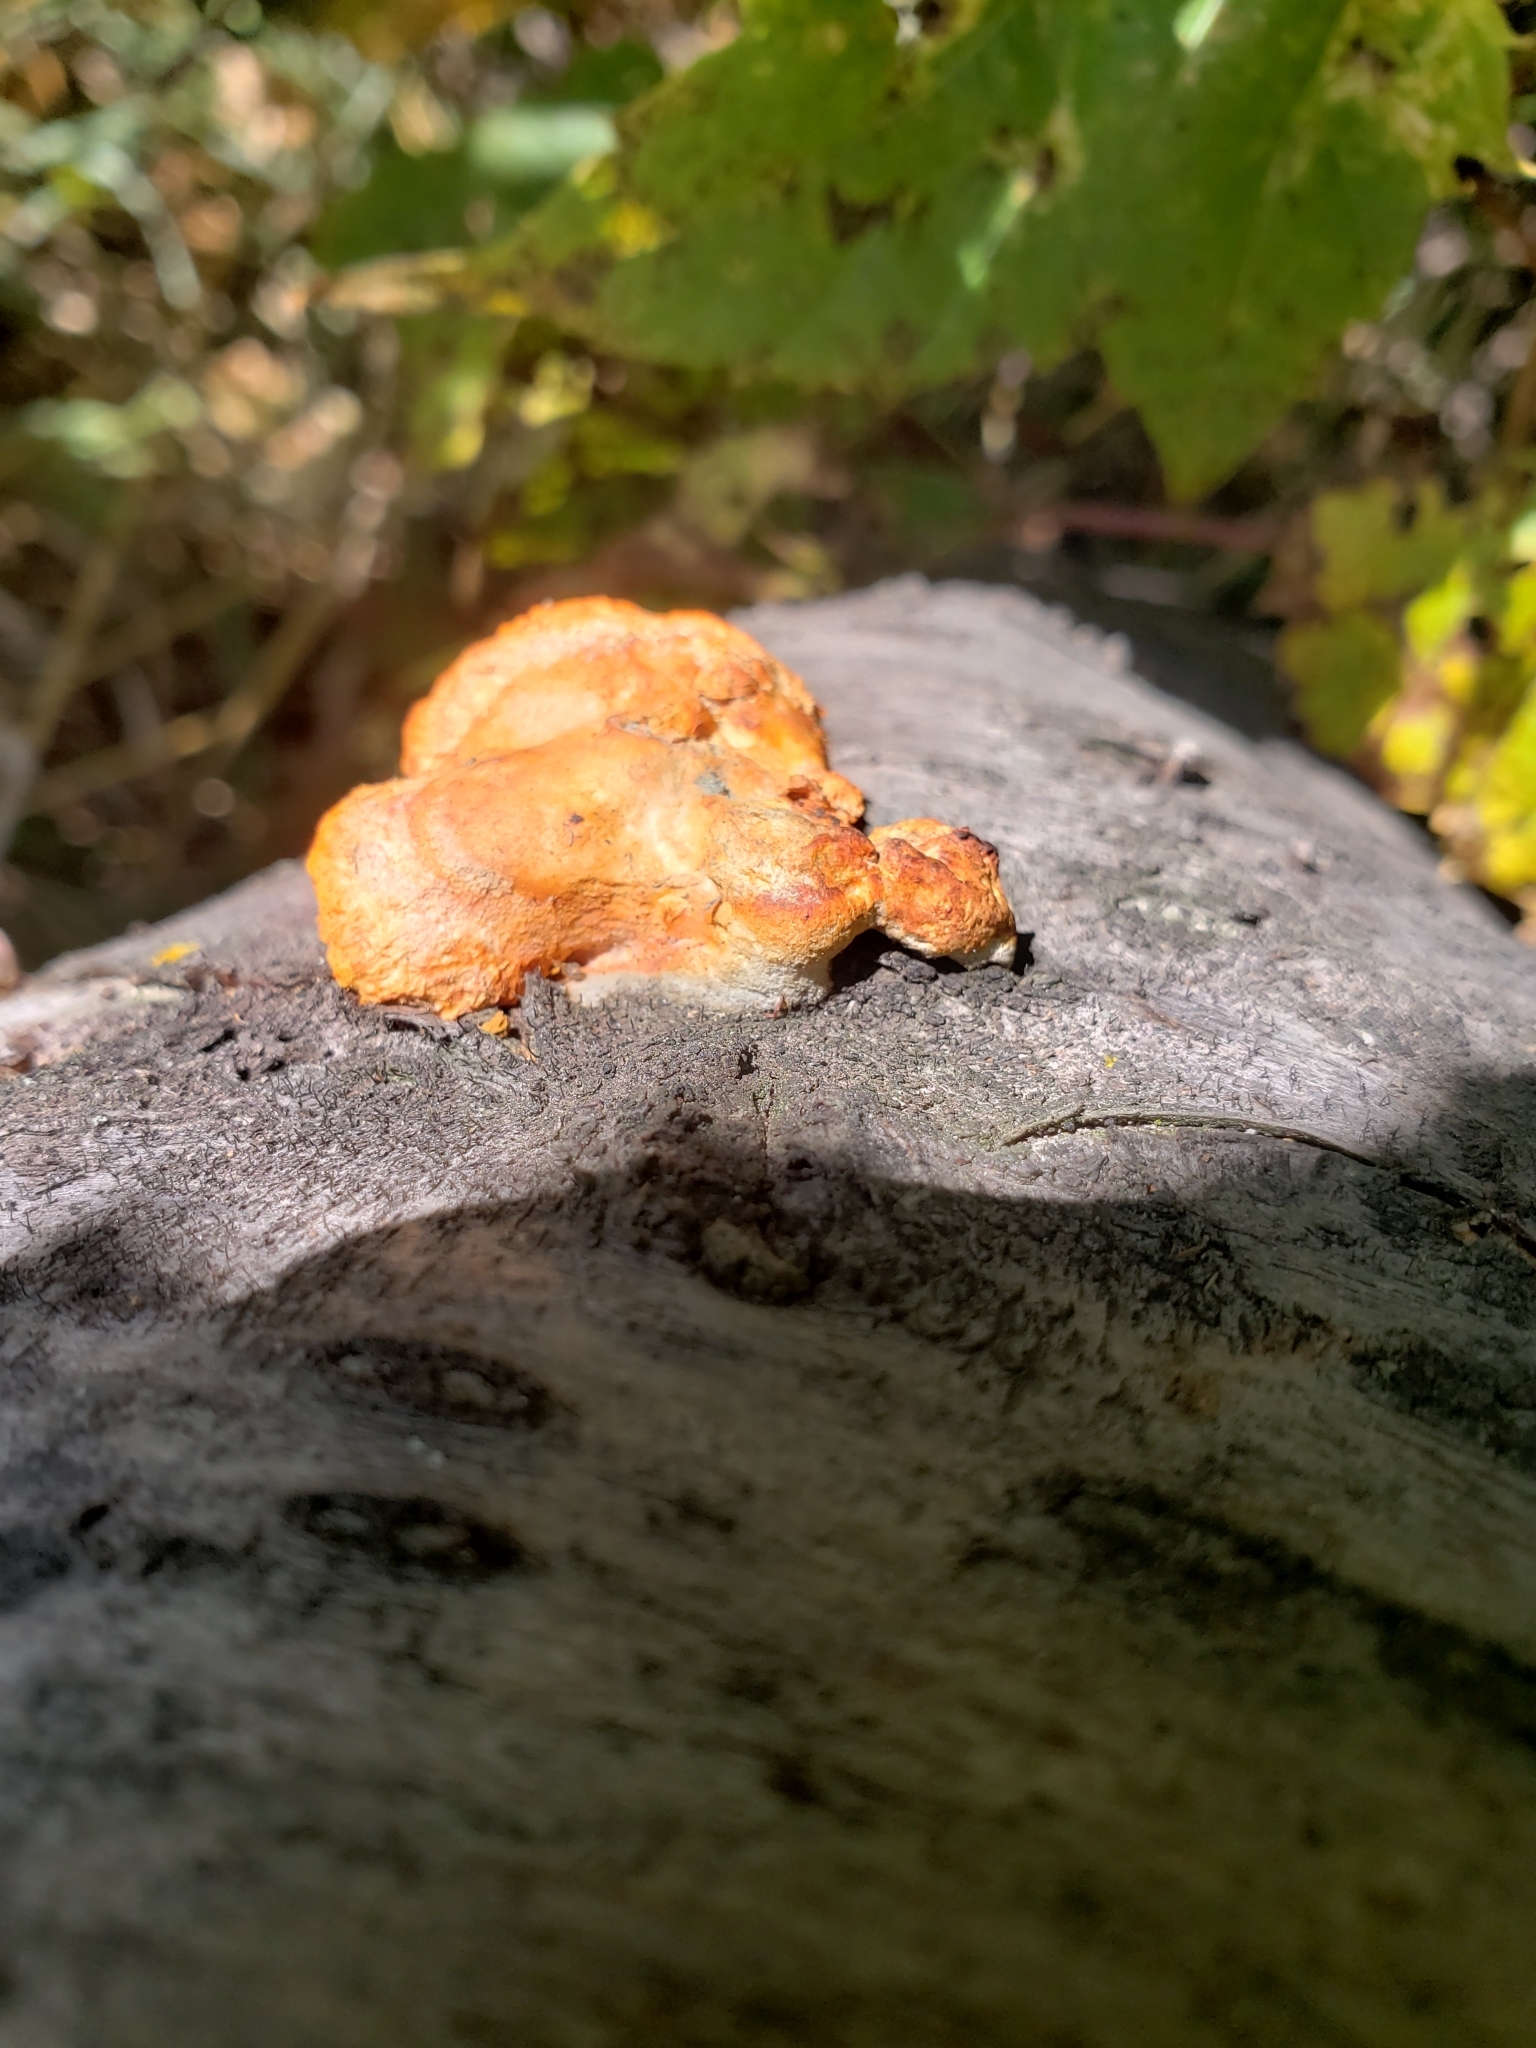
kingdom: Fungi
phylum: Basidiomycota
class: Agaricomycetes
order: Polyporales
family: Polyporaceae
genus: Trametes
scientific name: Trametes cinnabarina
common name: Northern cinnabar polypore
